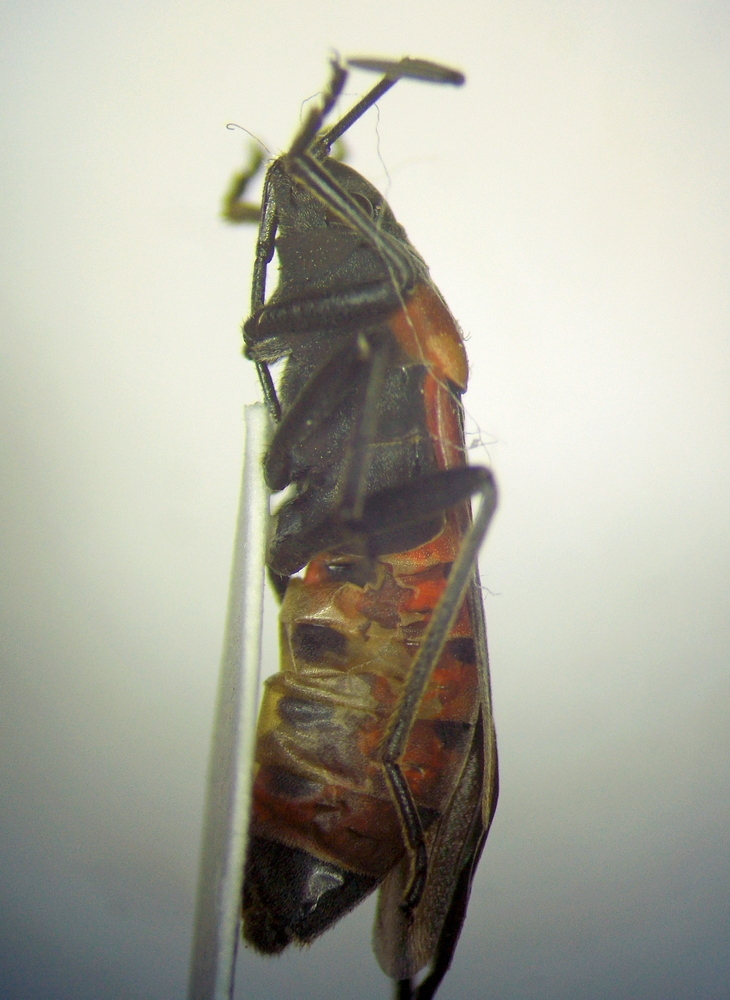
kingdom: Animalia
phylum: Arthropoda
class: Insecta
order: Hemiptera
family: Lygaeidae
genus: Lygaeus
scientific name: Lygaeus kalmii
